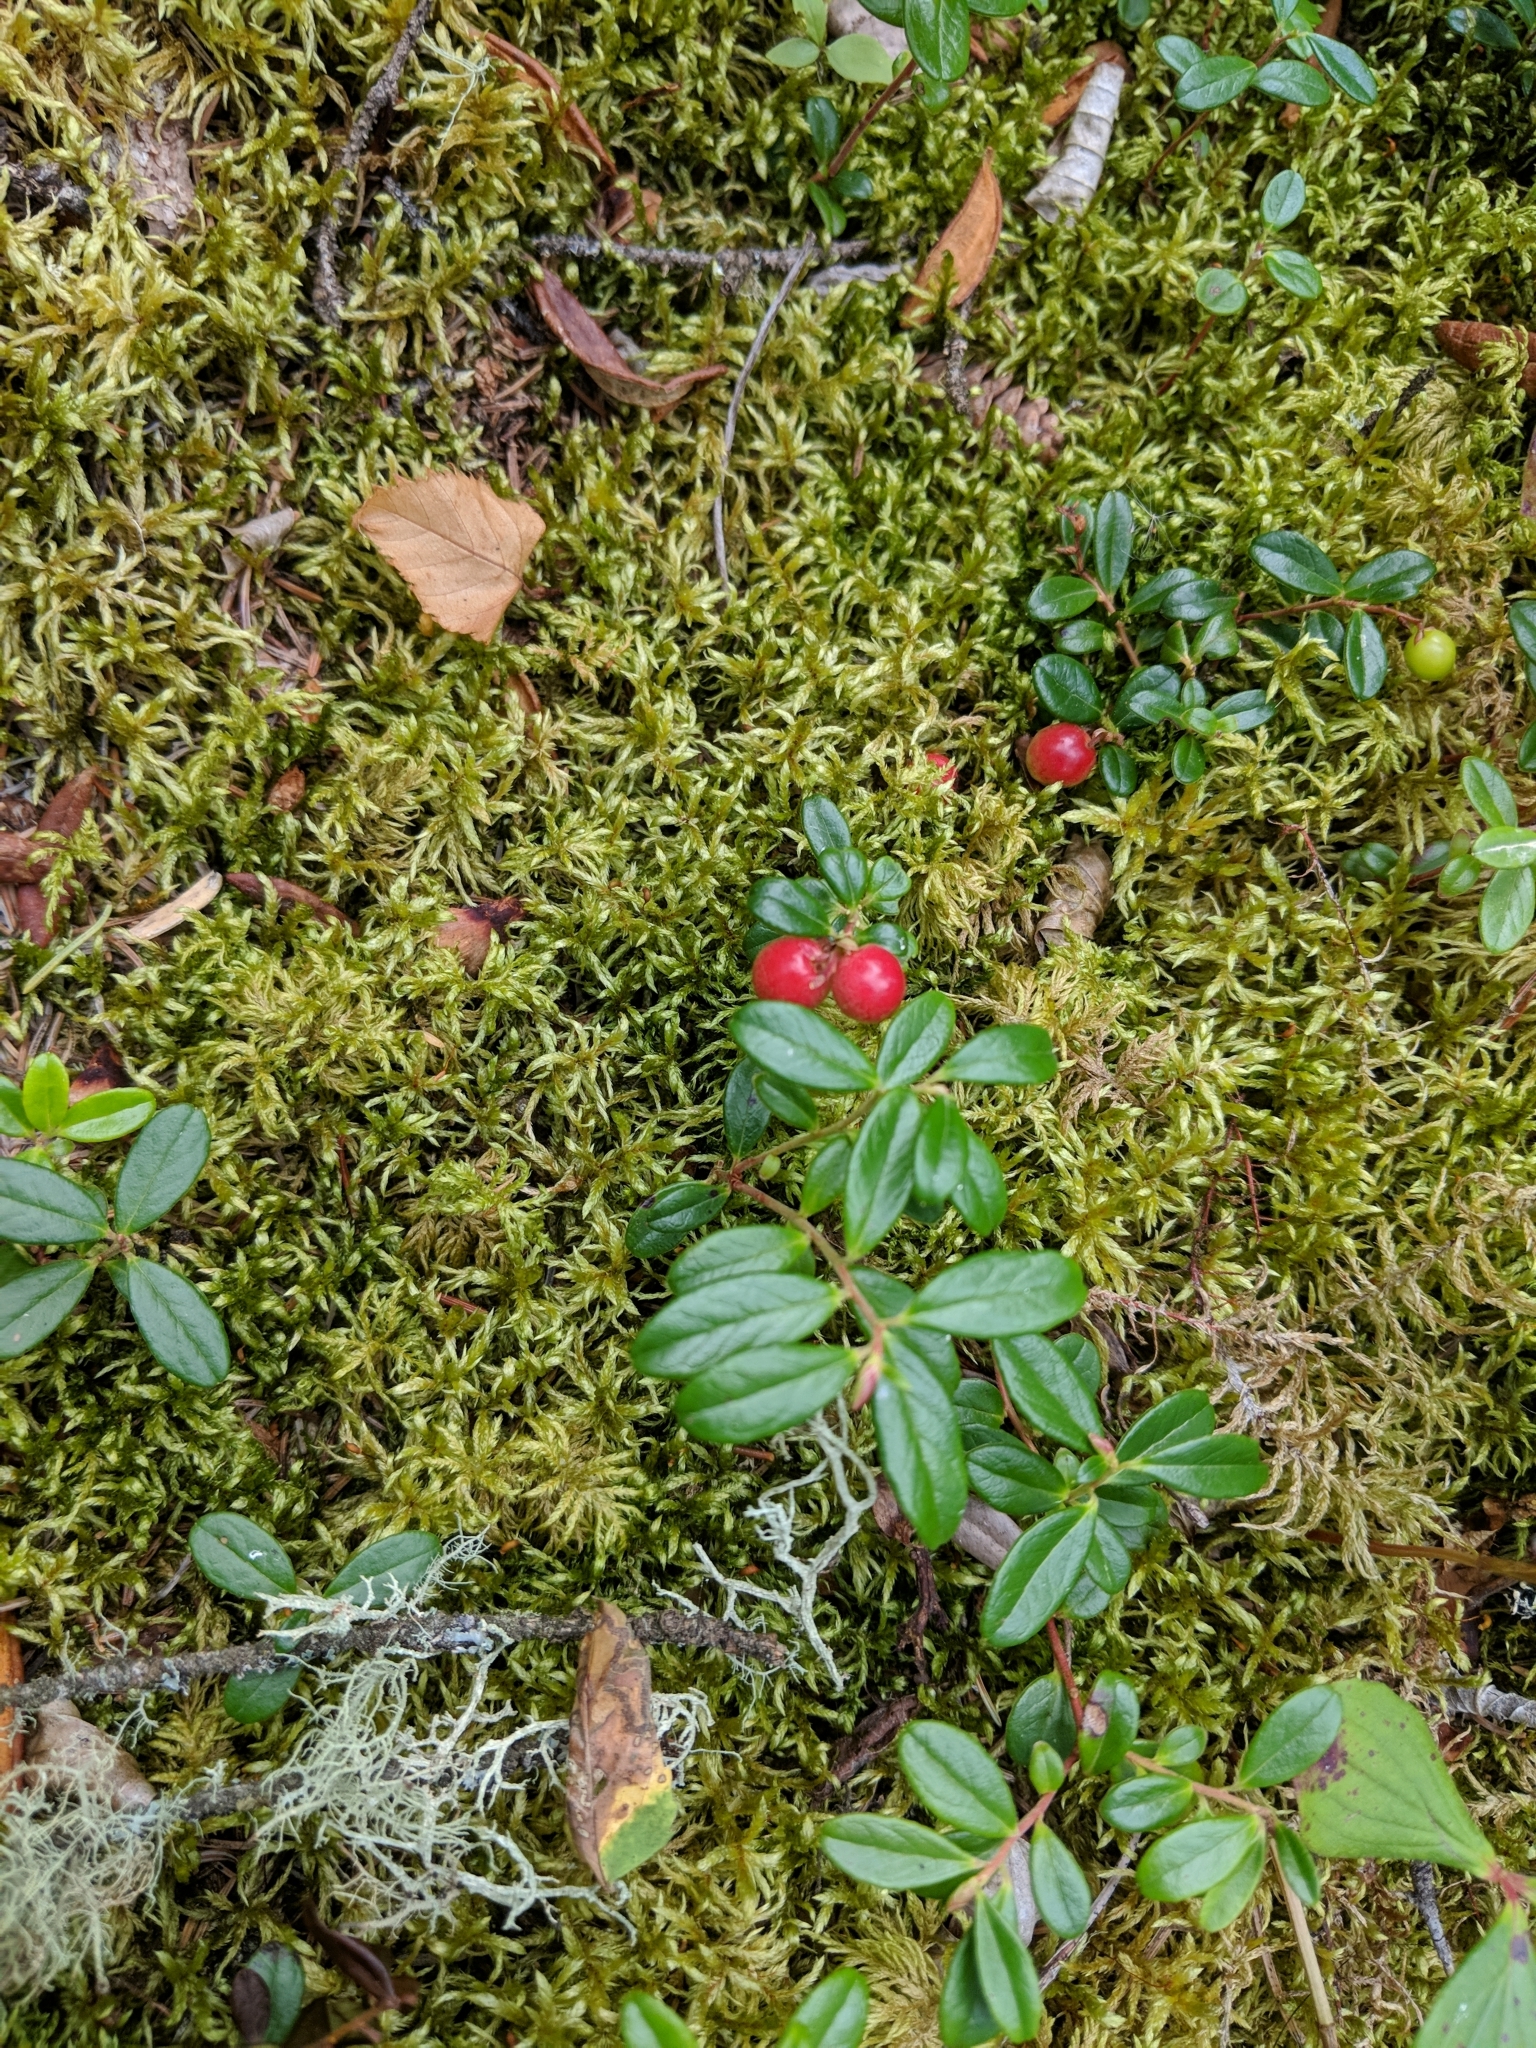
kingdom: Plantae
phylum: Tracheophyta
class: Magnoliopsida
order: Ericales
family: Ericaceae
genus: Vaccinium
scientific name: Vaccinium vitis-idaea
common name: Cowberry
